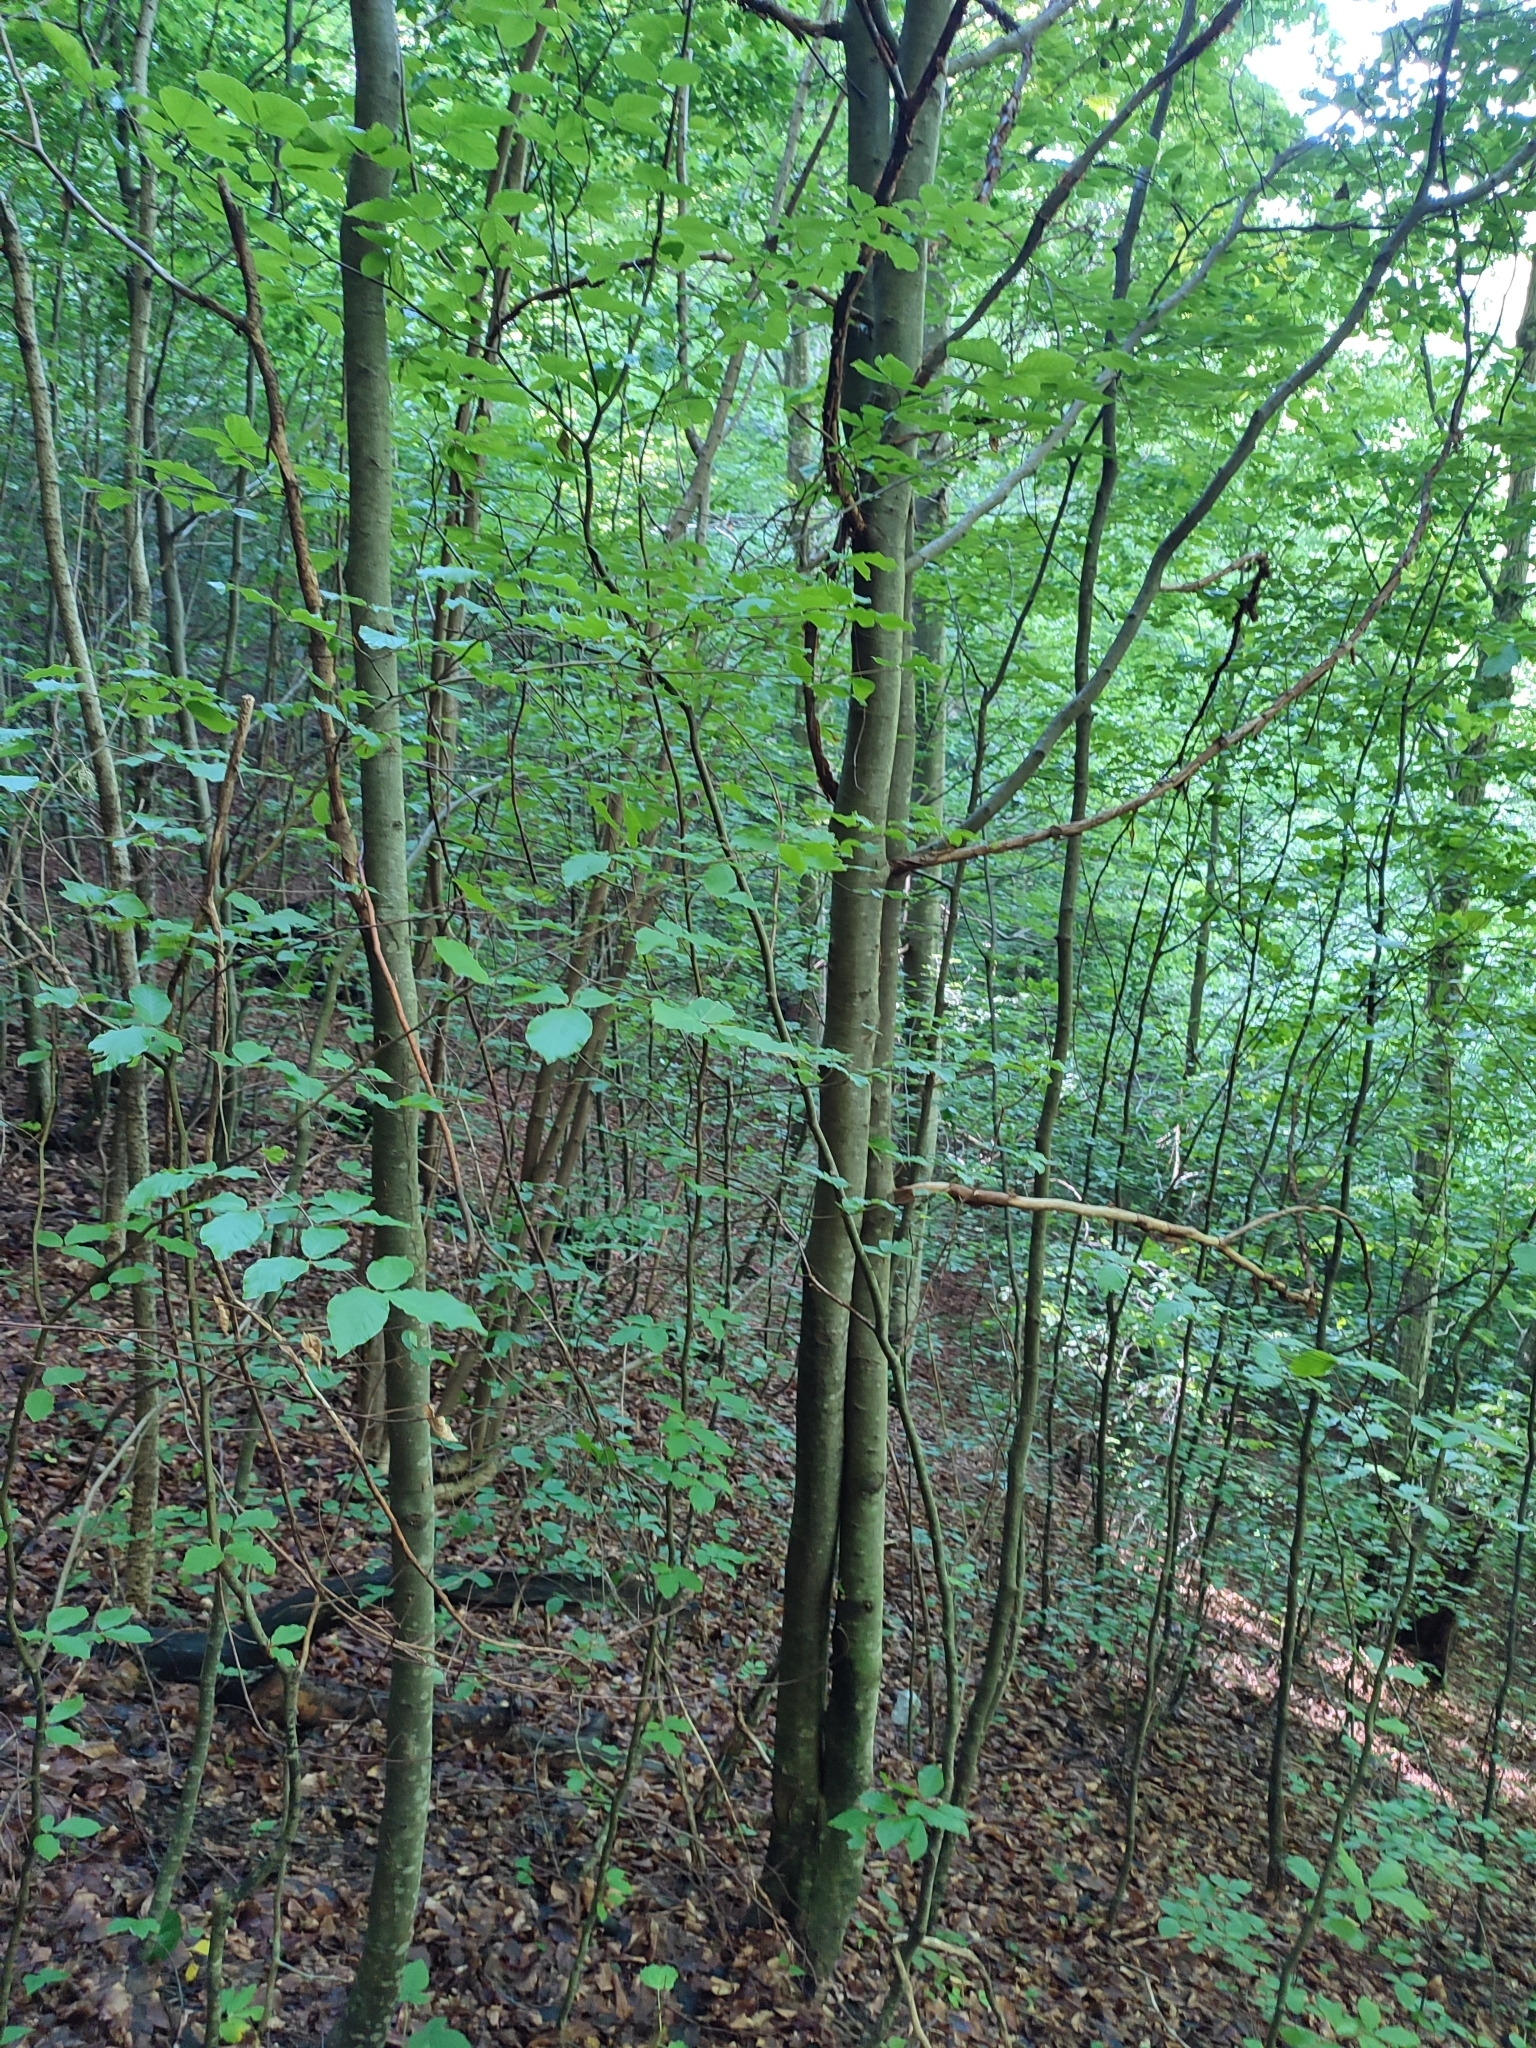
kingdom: Plantae
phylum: Tracheophyta
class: Magnoliopsida
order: Fagales
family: Fagaceae
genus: Fagus
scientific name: Fagus sylvatica
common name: Beech
